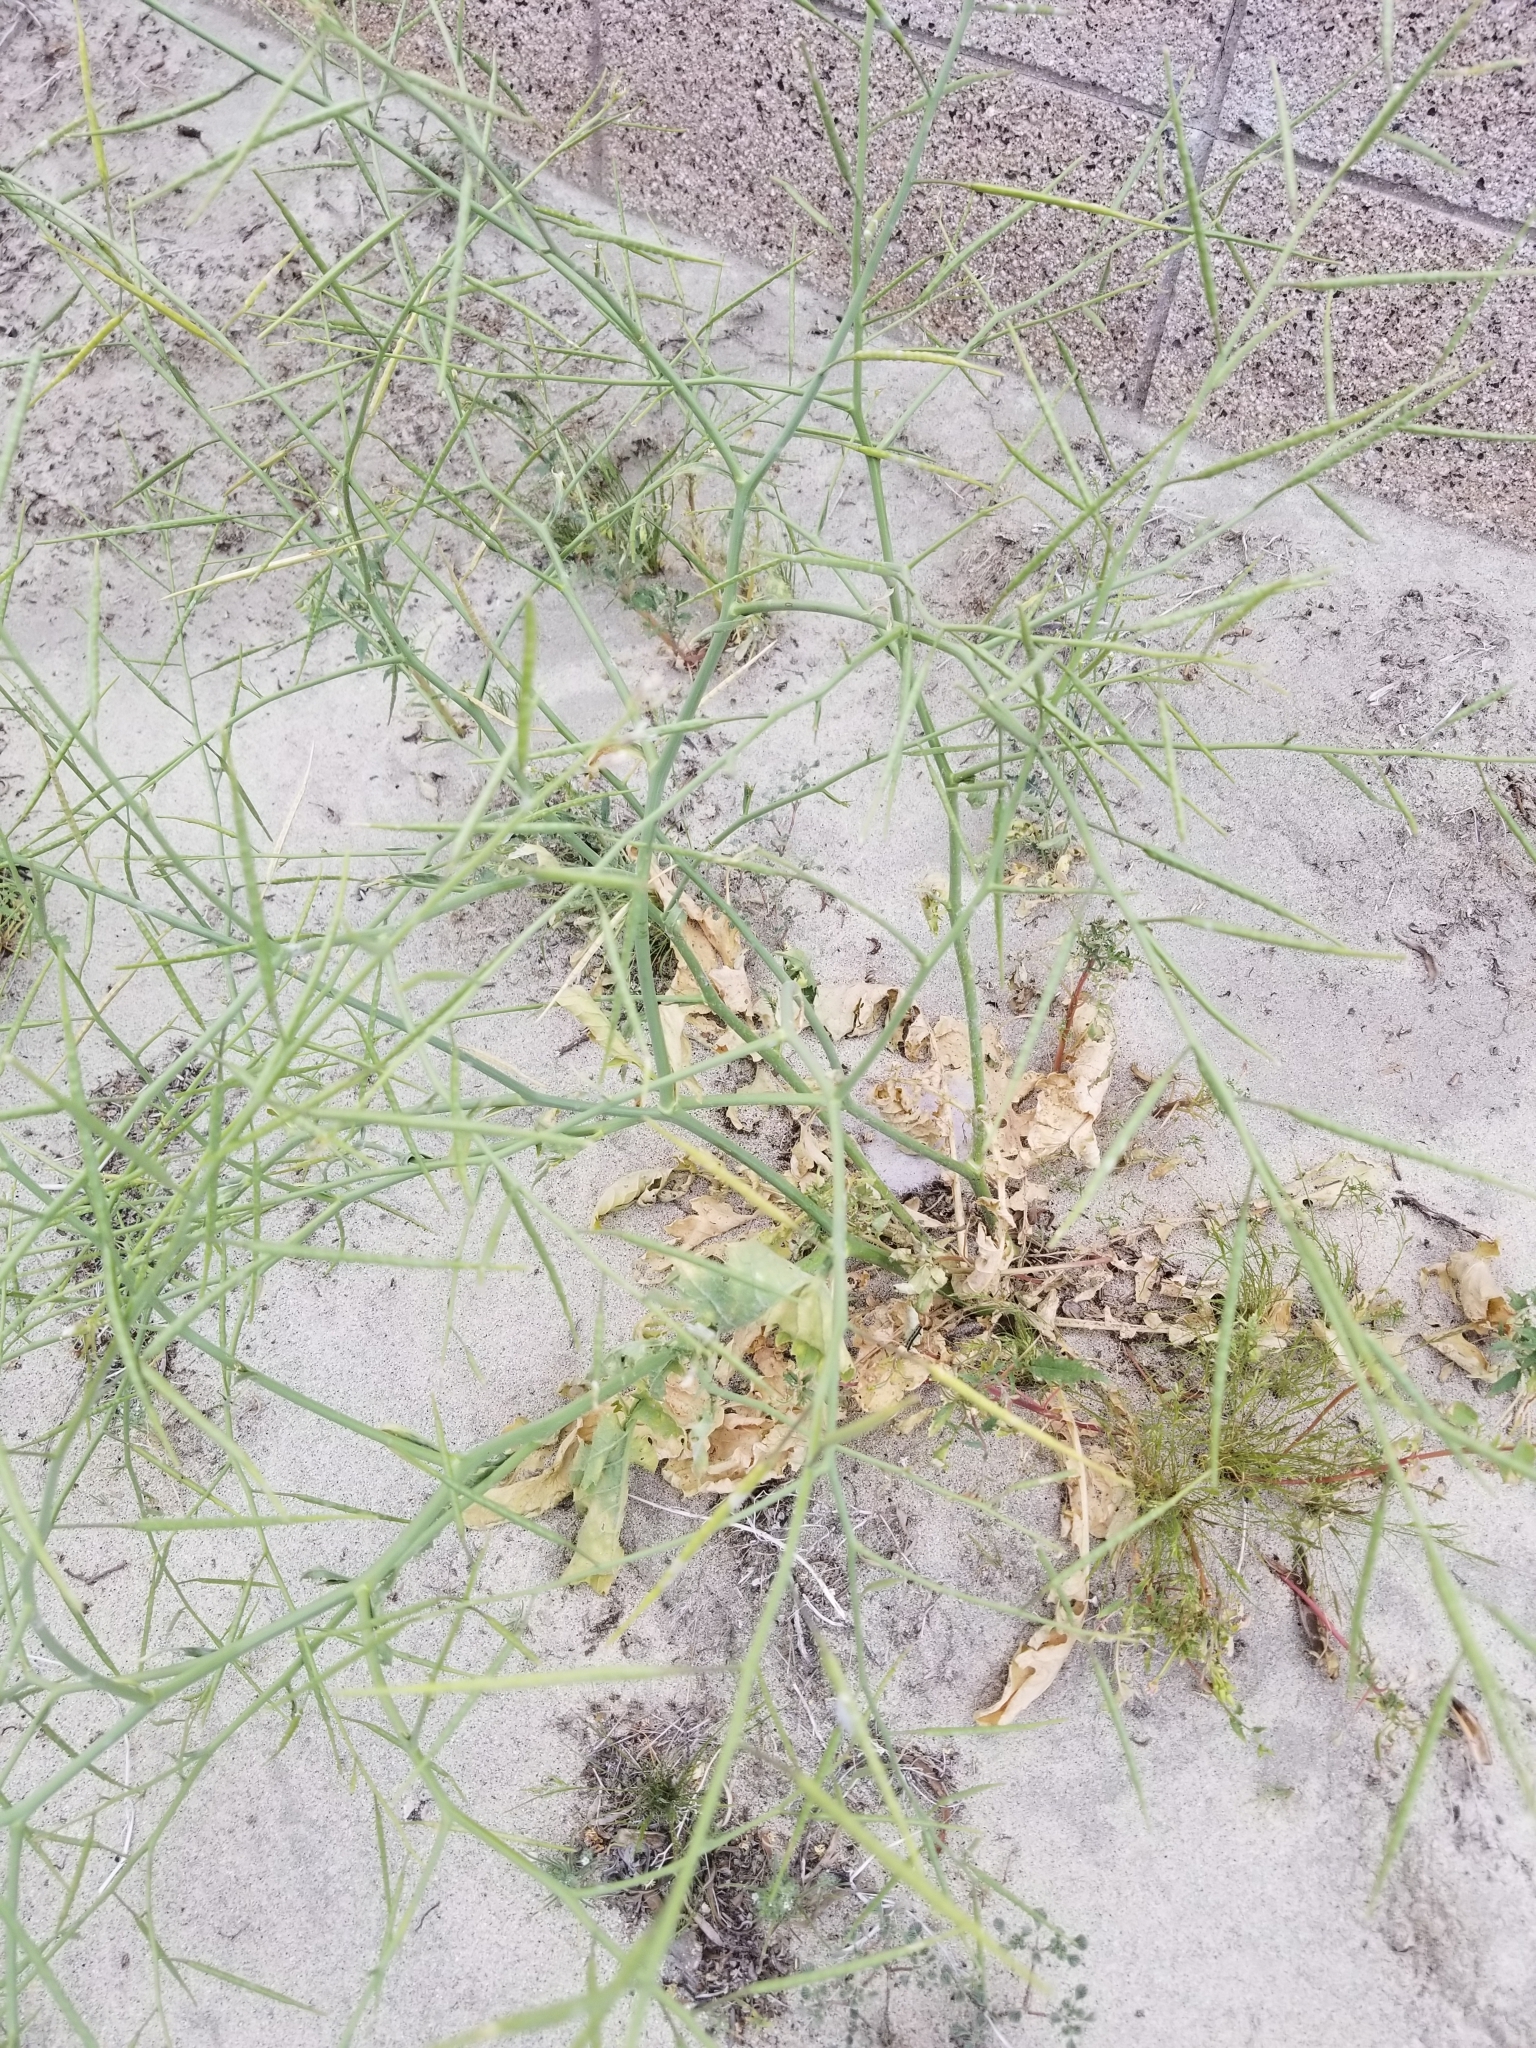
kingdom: Plantae
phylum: Tracheophyta
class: Magnoliopsida
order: Brassicales
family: Brassicaceae
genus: Brassica
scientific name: Brassica tournefortii
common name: Pale cabbage
